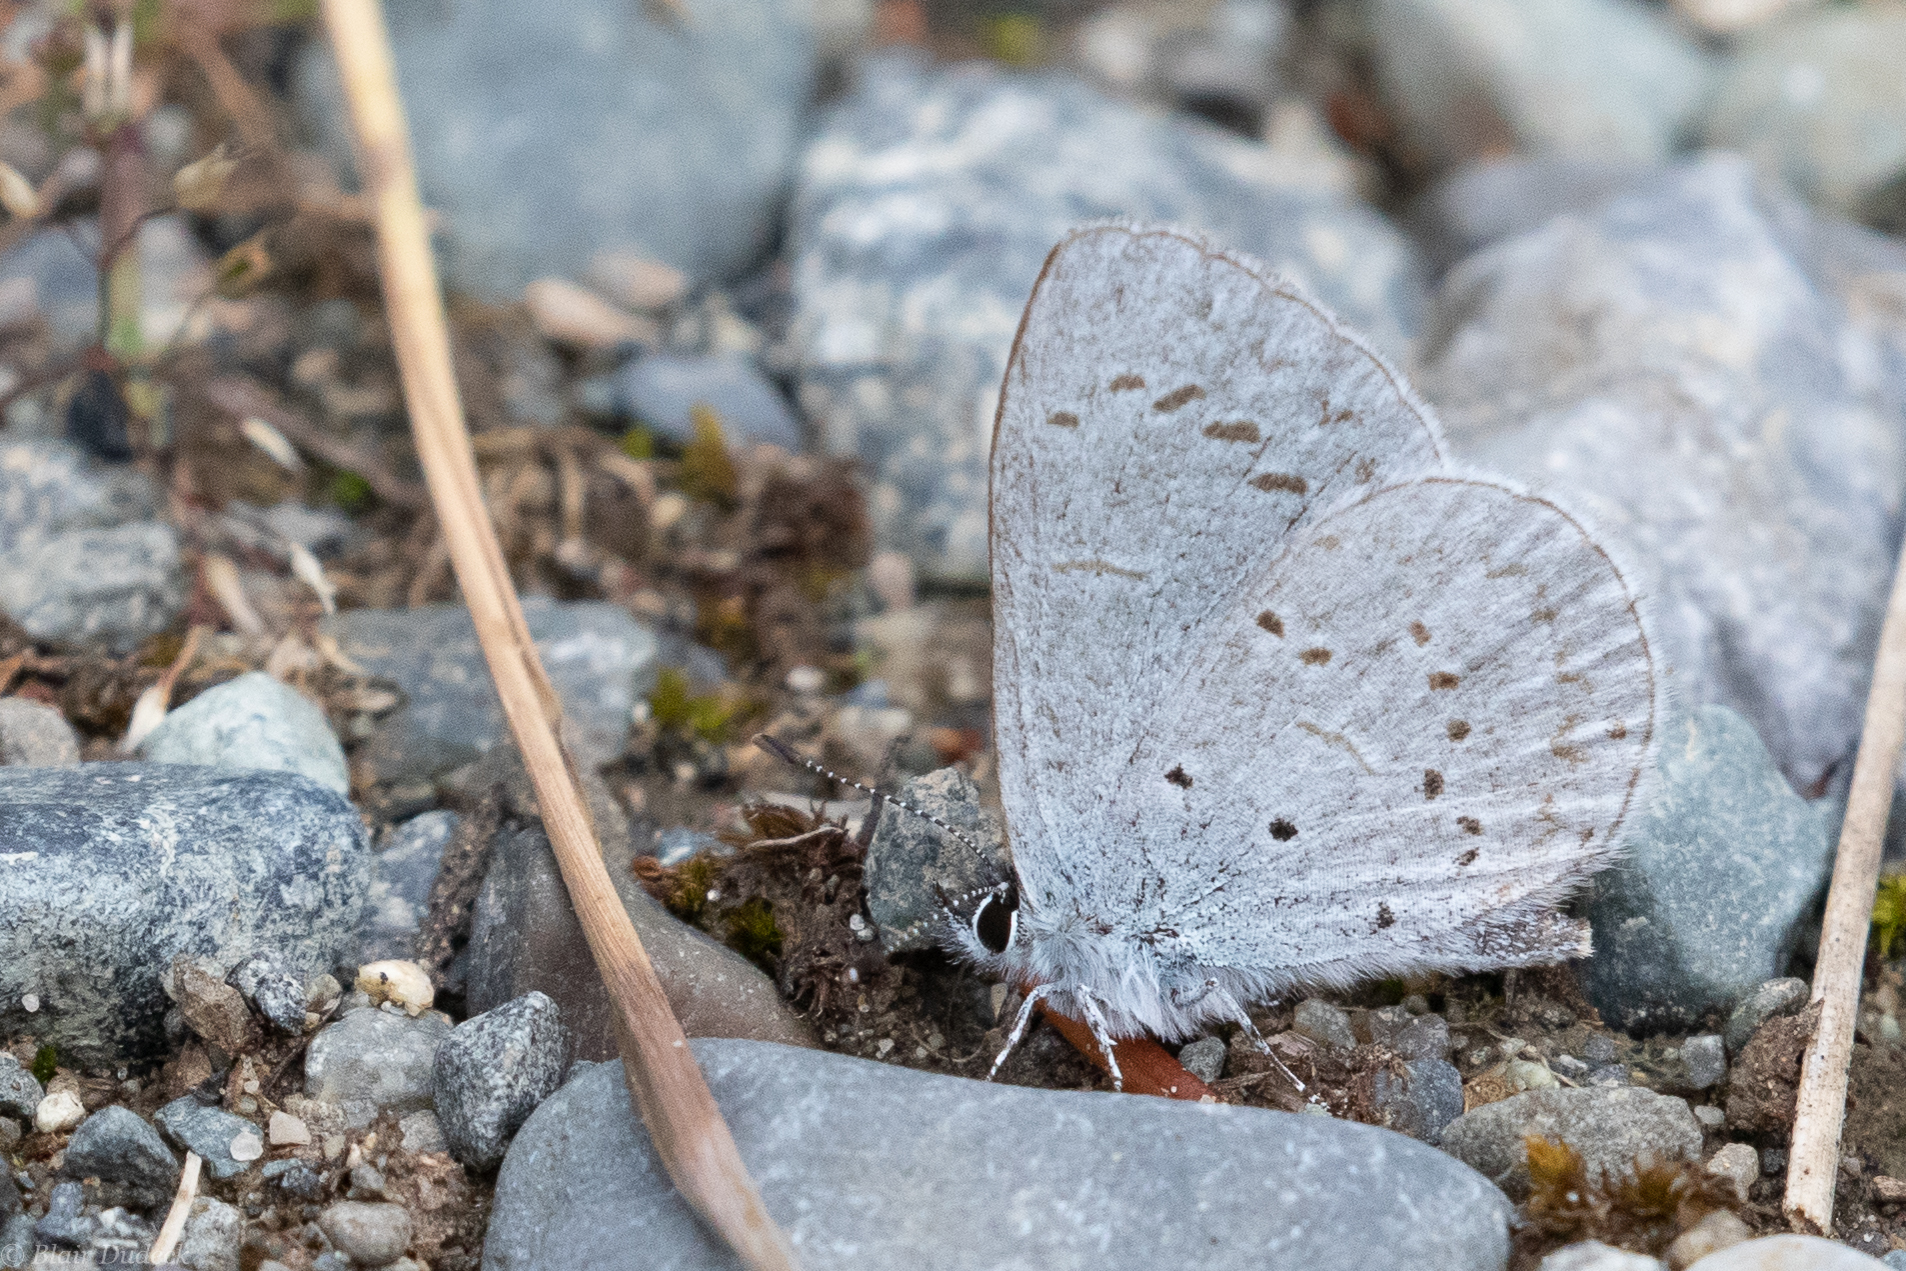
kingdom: Animalia
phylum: Arthropoda
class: Insecta
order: Lepidoptera
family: Lycaenidae
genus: Celastrina
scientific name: Celastrina ladon
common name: Spring azure
